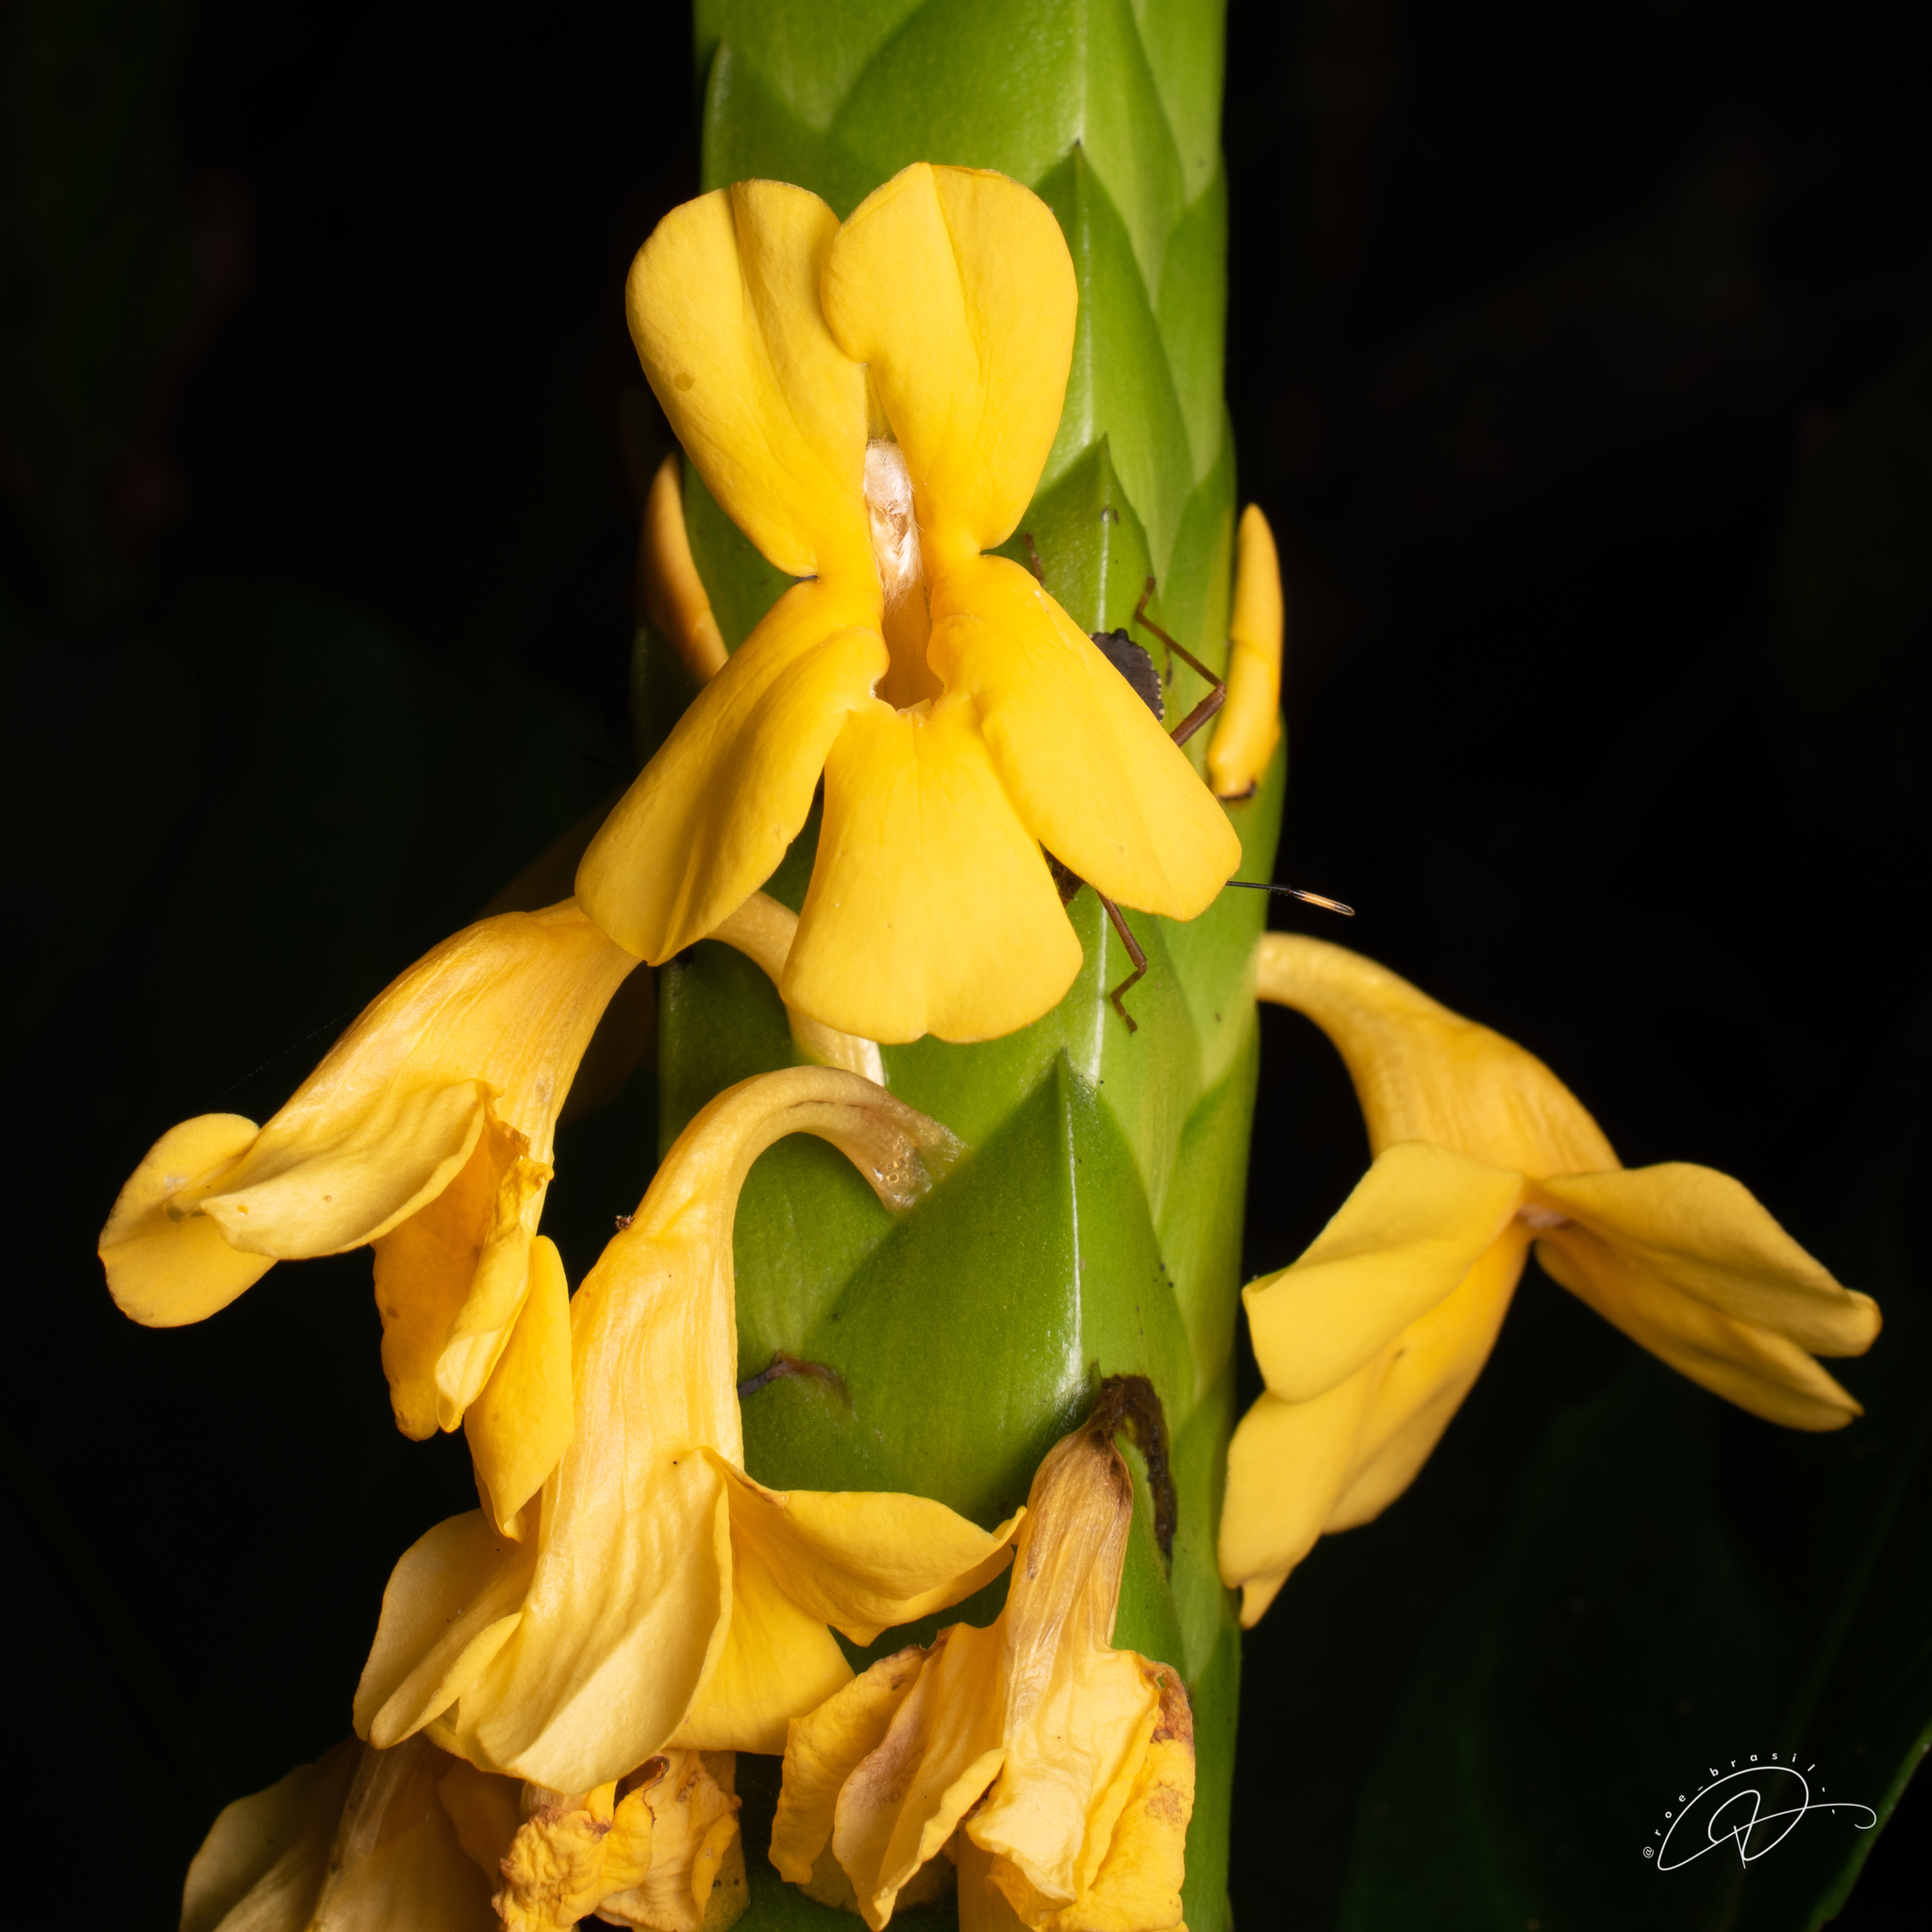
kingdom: Plantae
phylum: Tracheophyta
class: Magnoliopsida
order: Lamiales
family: Acanthaceae
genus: Aphelandra
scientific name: Aphelandra prismatica
